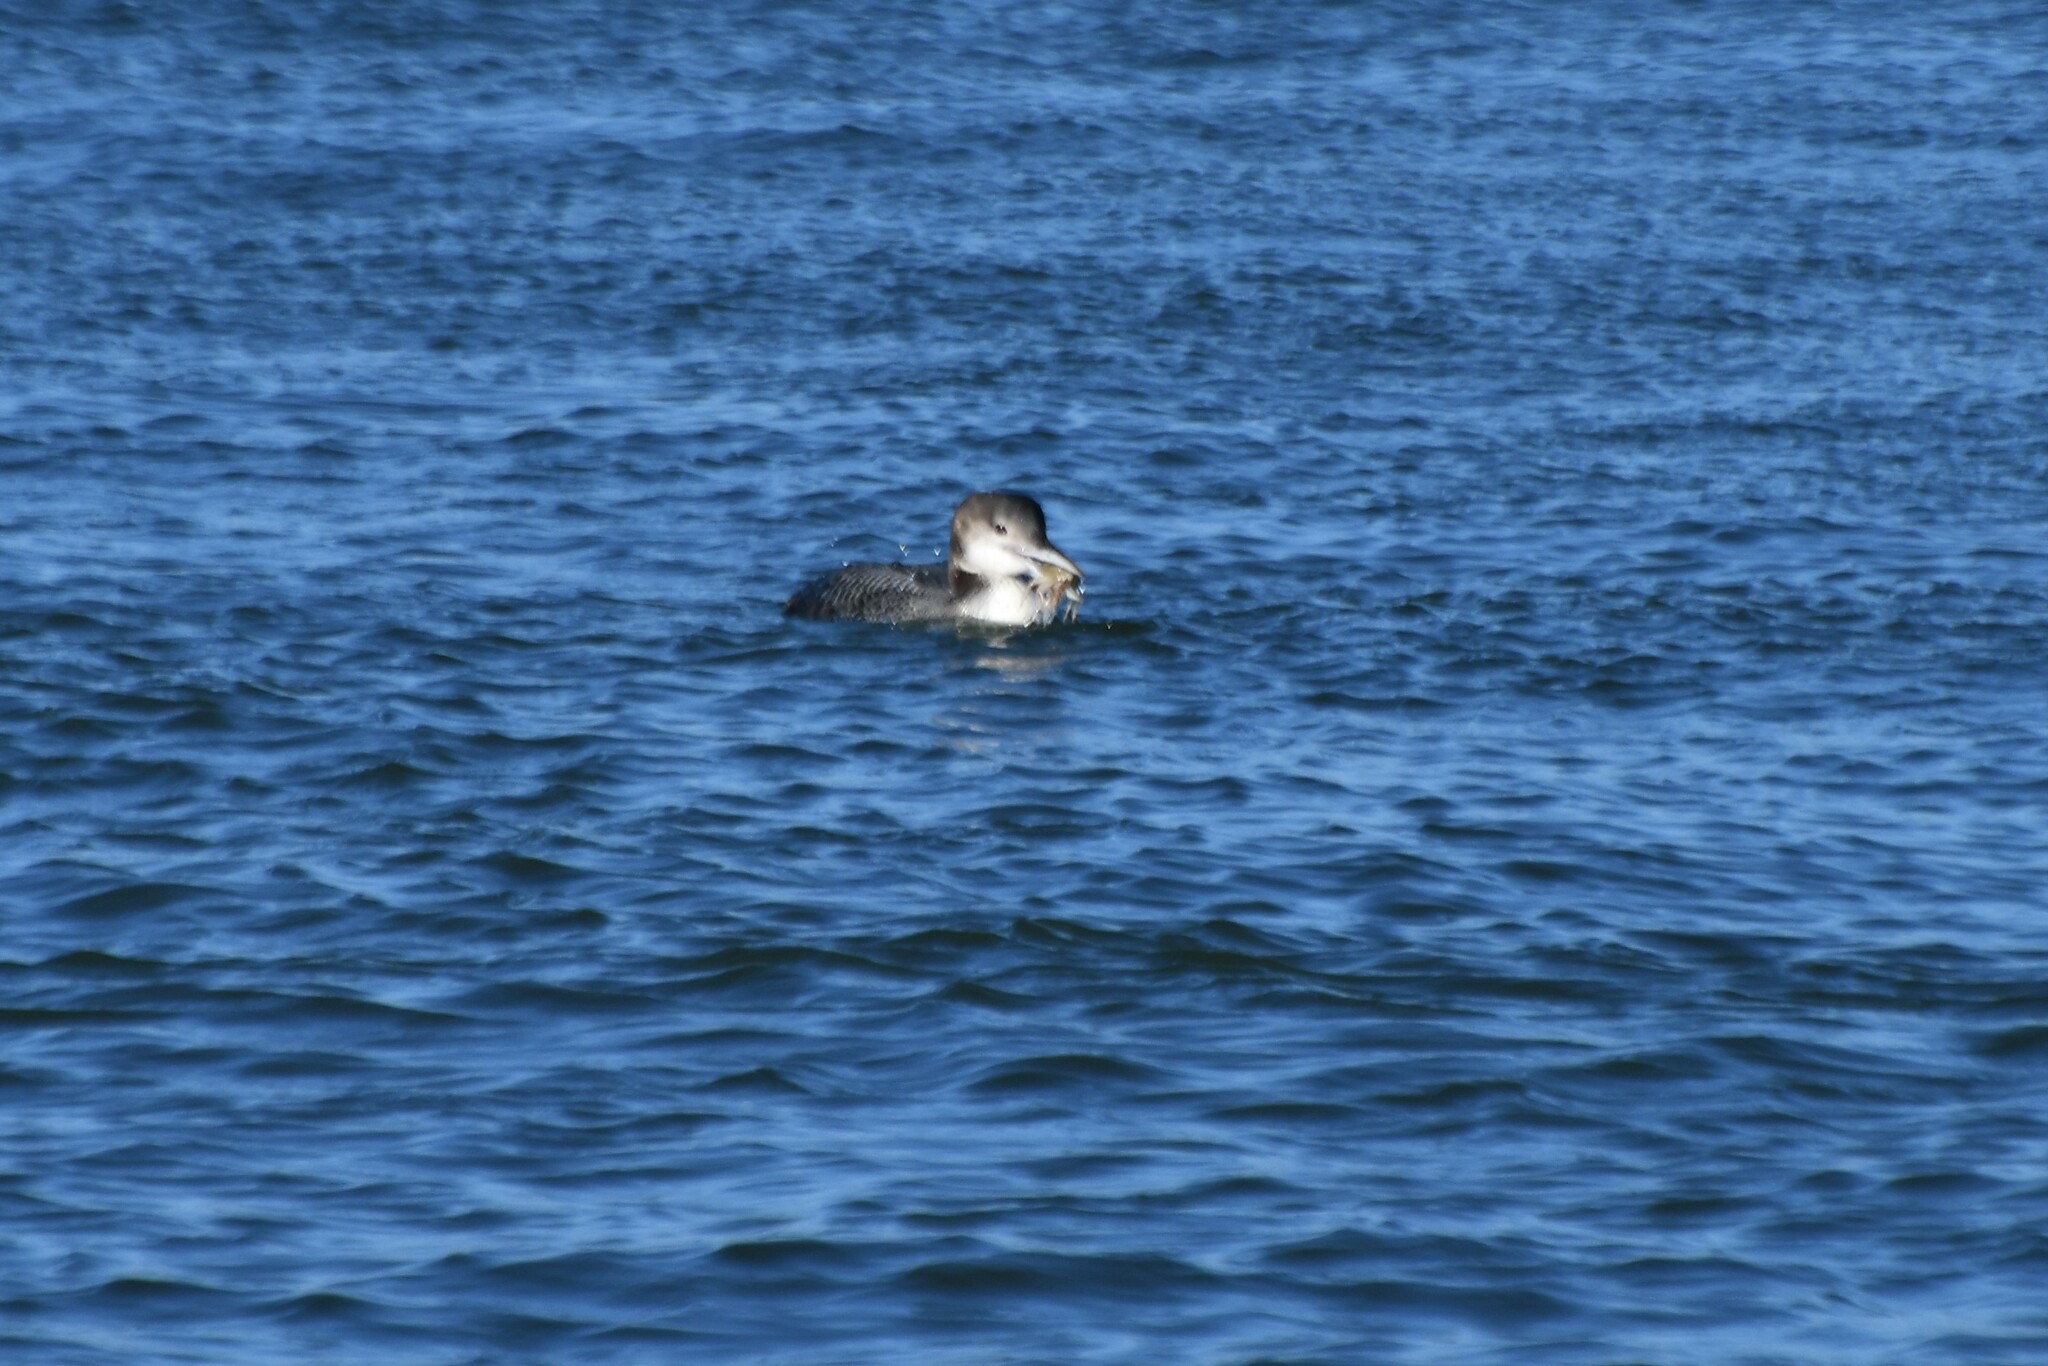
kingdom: Animalia
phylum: Chordata
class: Aves
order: Gaviiformes
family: Gaviidae
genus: Gavia
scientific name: Gavia immer
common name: Common loon
